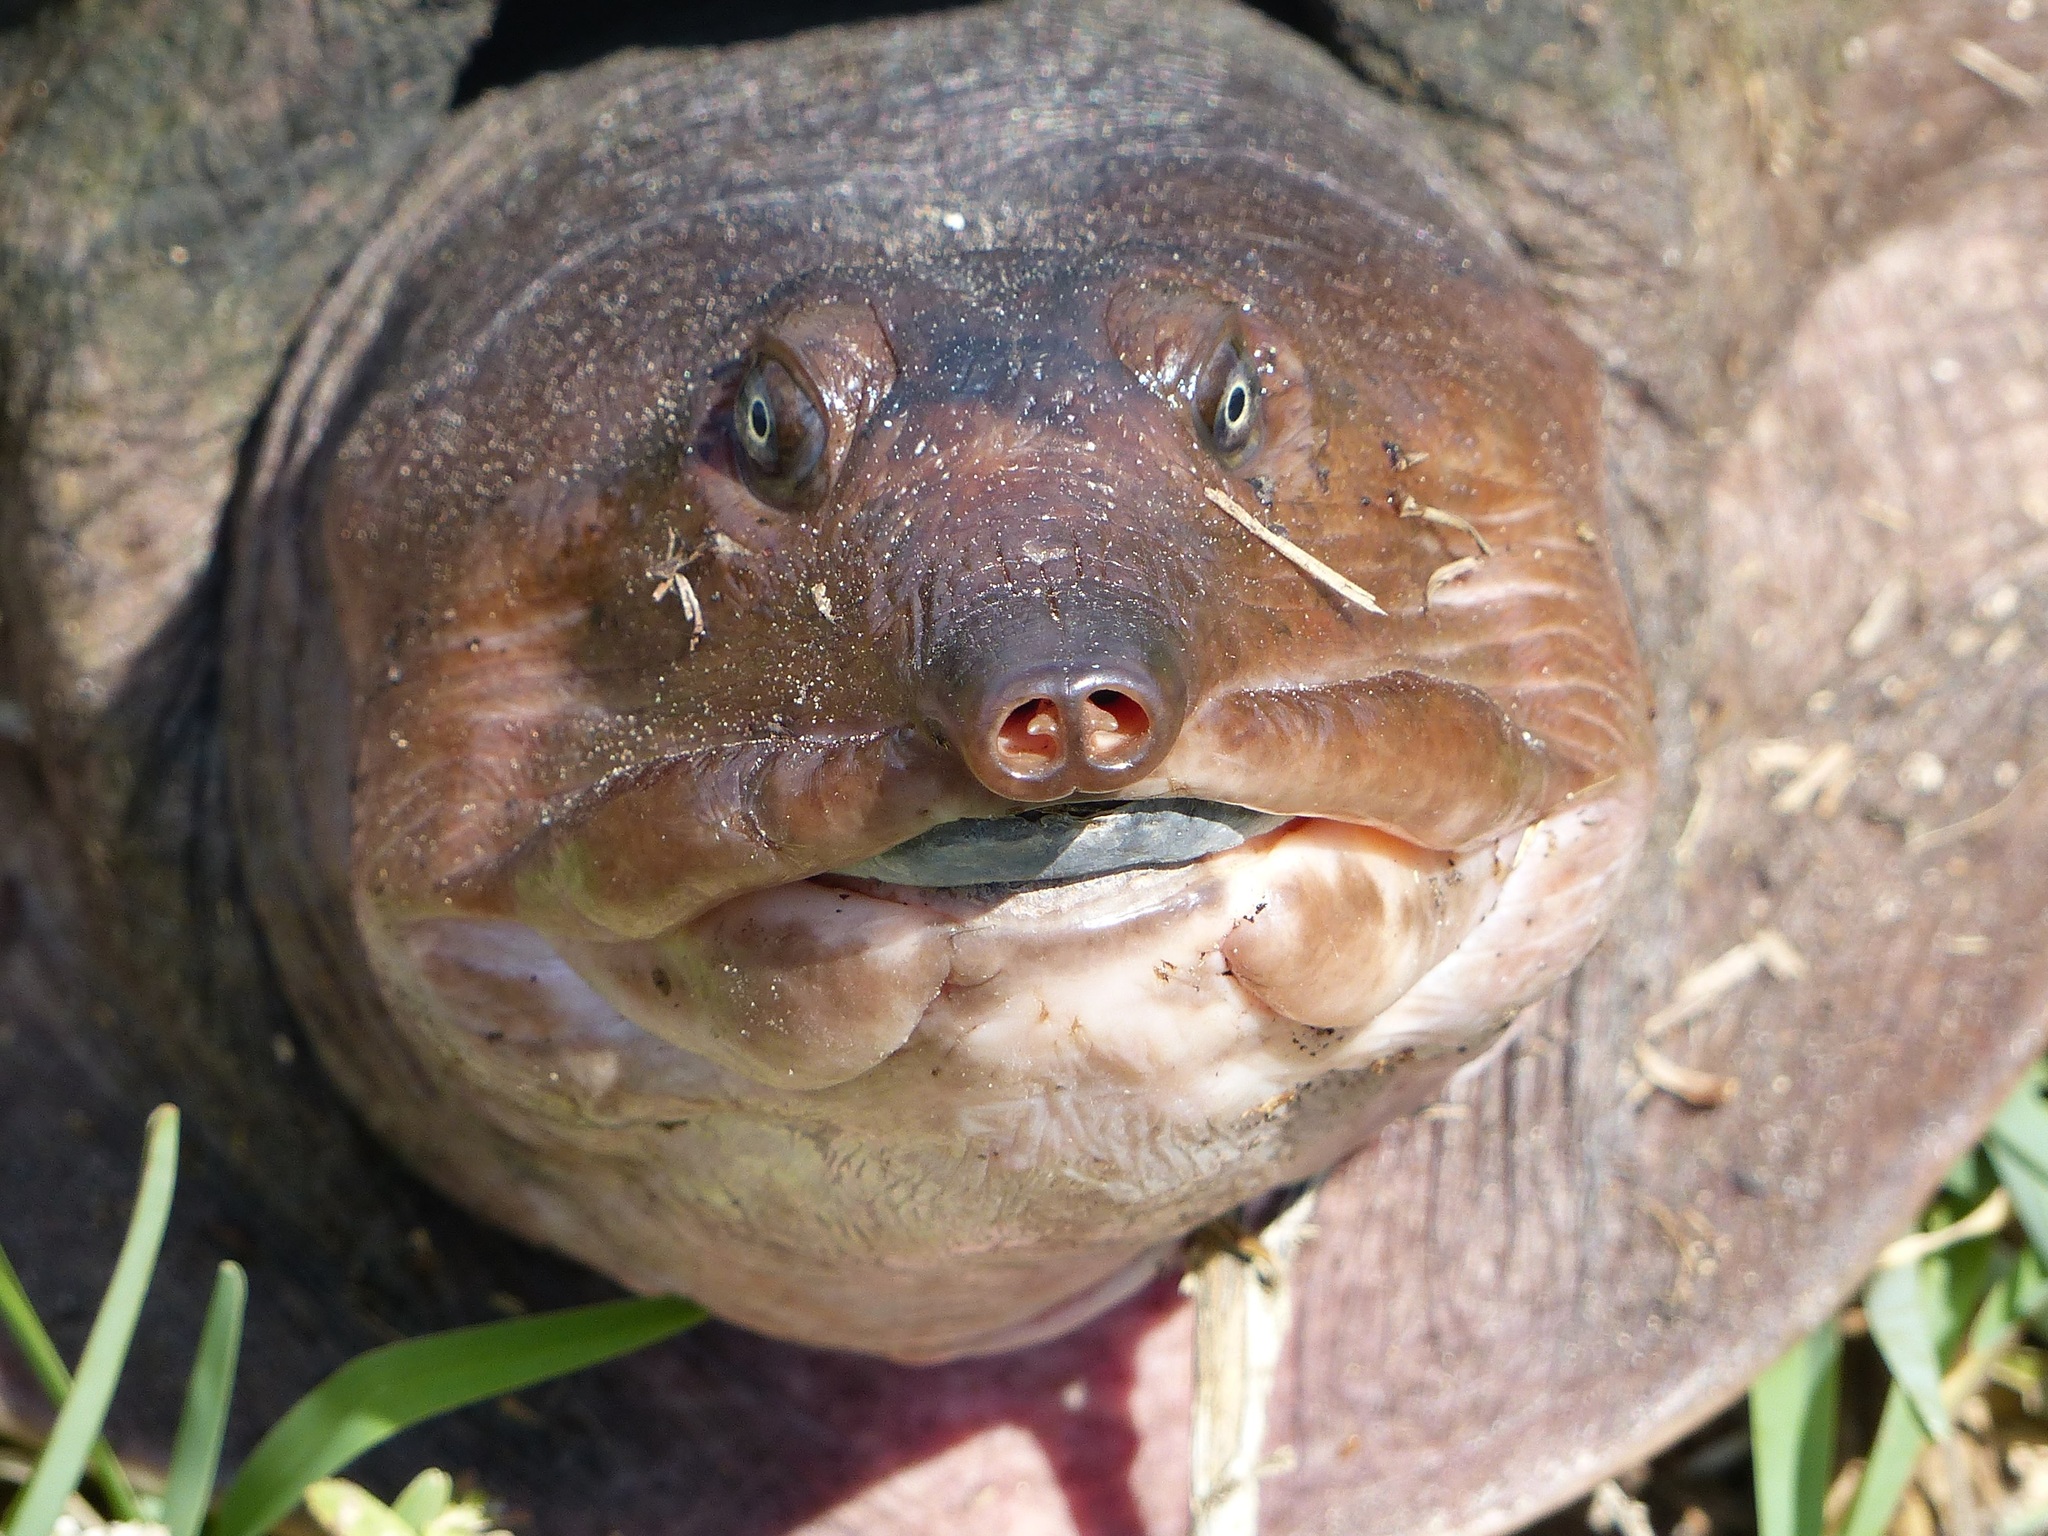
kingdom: Animalia
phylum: Chordata
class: Testudines
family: Trionychidae
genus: Apalone
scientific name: Apalone ferox
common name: Florida softshell turtle
